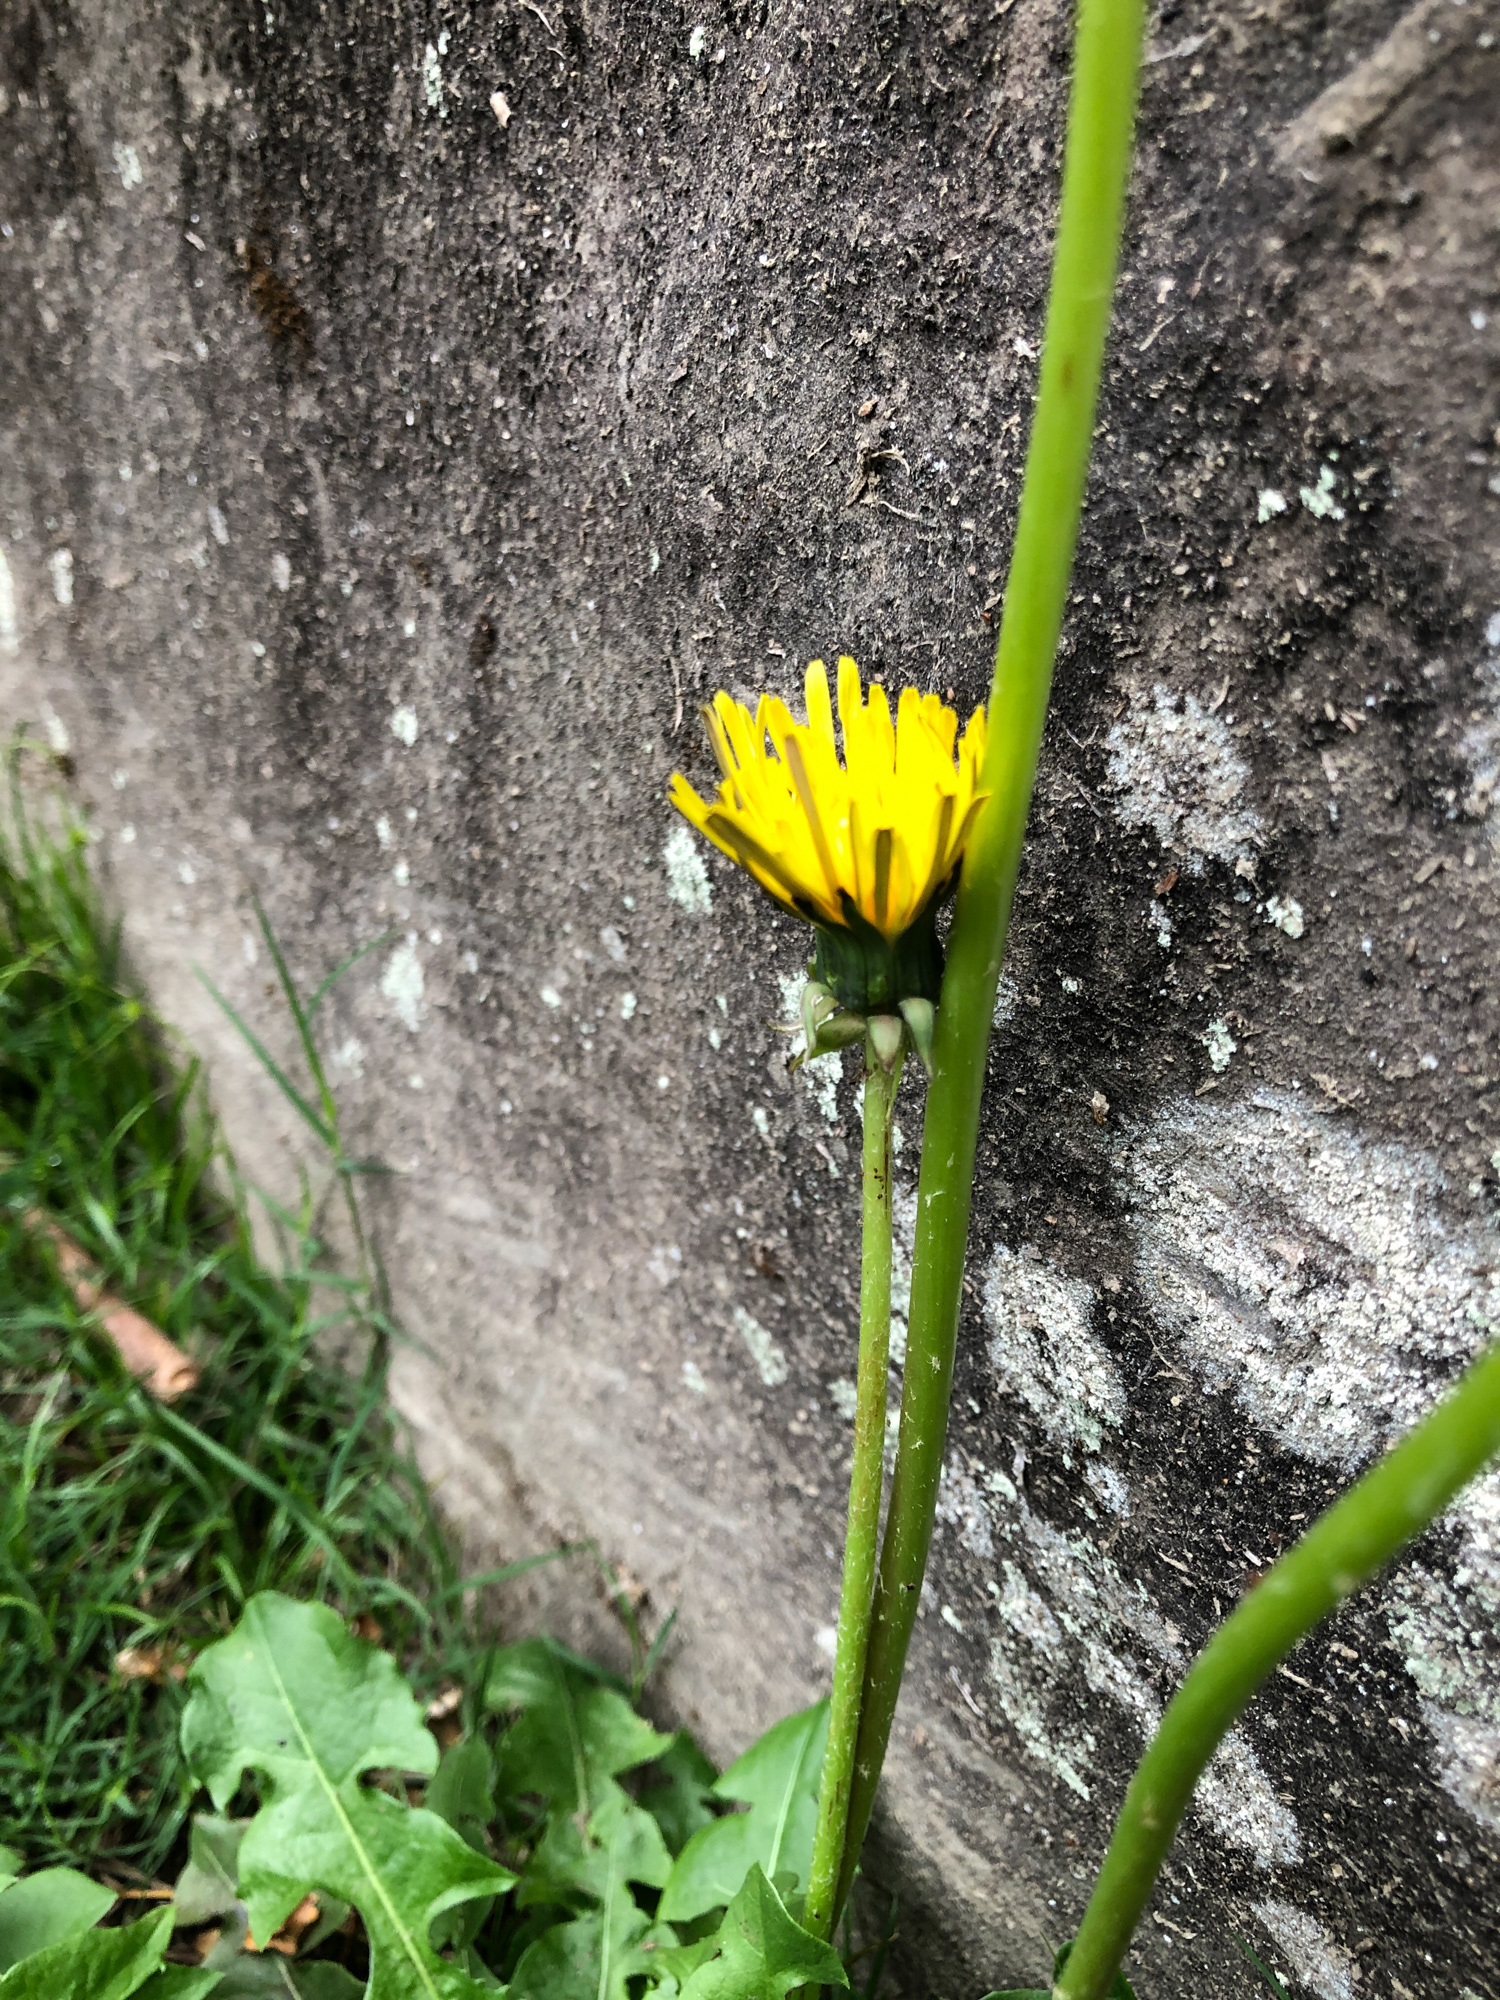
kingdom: Plantae
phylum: Tracheophyta
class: Magnoliopsida
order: Asterales
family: Asteraceae
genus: Taraxacum
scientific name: Taraxacum officinale
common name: Common dandelion
